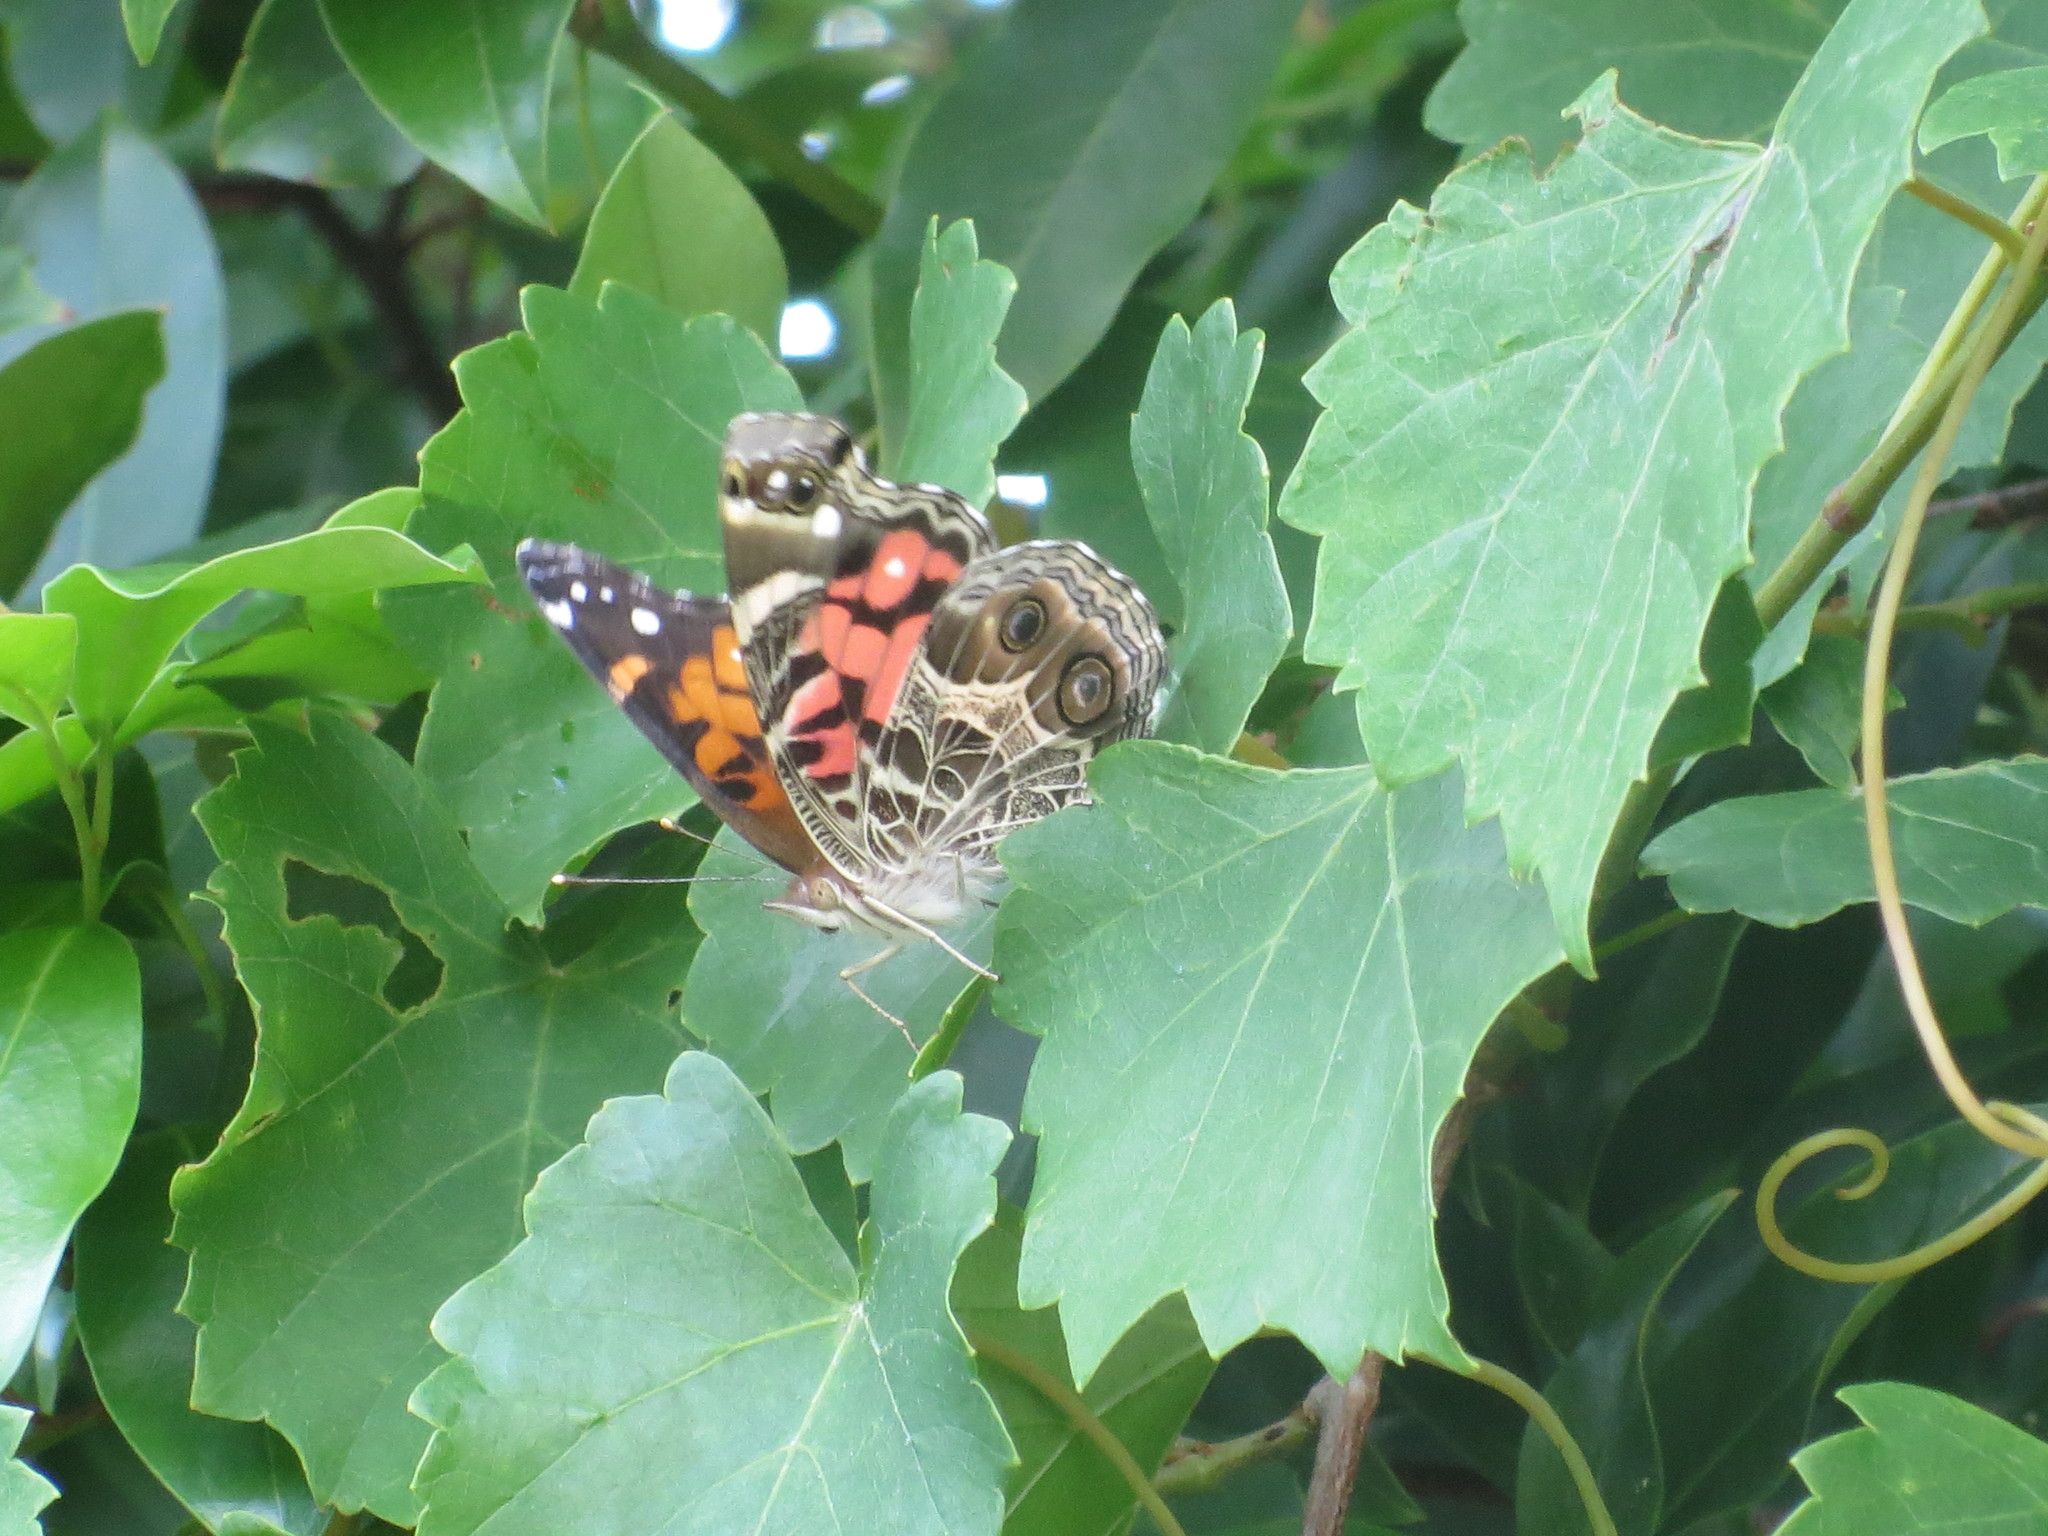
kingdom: Animalia
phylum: Arthropoda
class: Insecta
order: Lepidoptera
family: Nymphalidae
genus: Vanessa
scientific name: Vanessa virginiensis
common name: American lady
